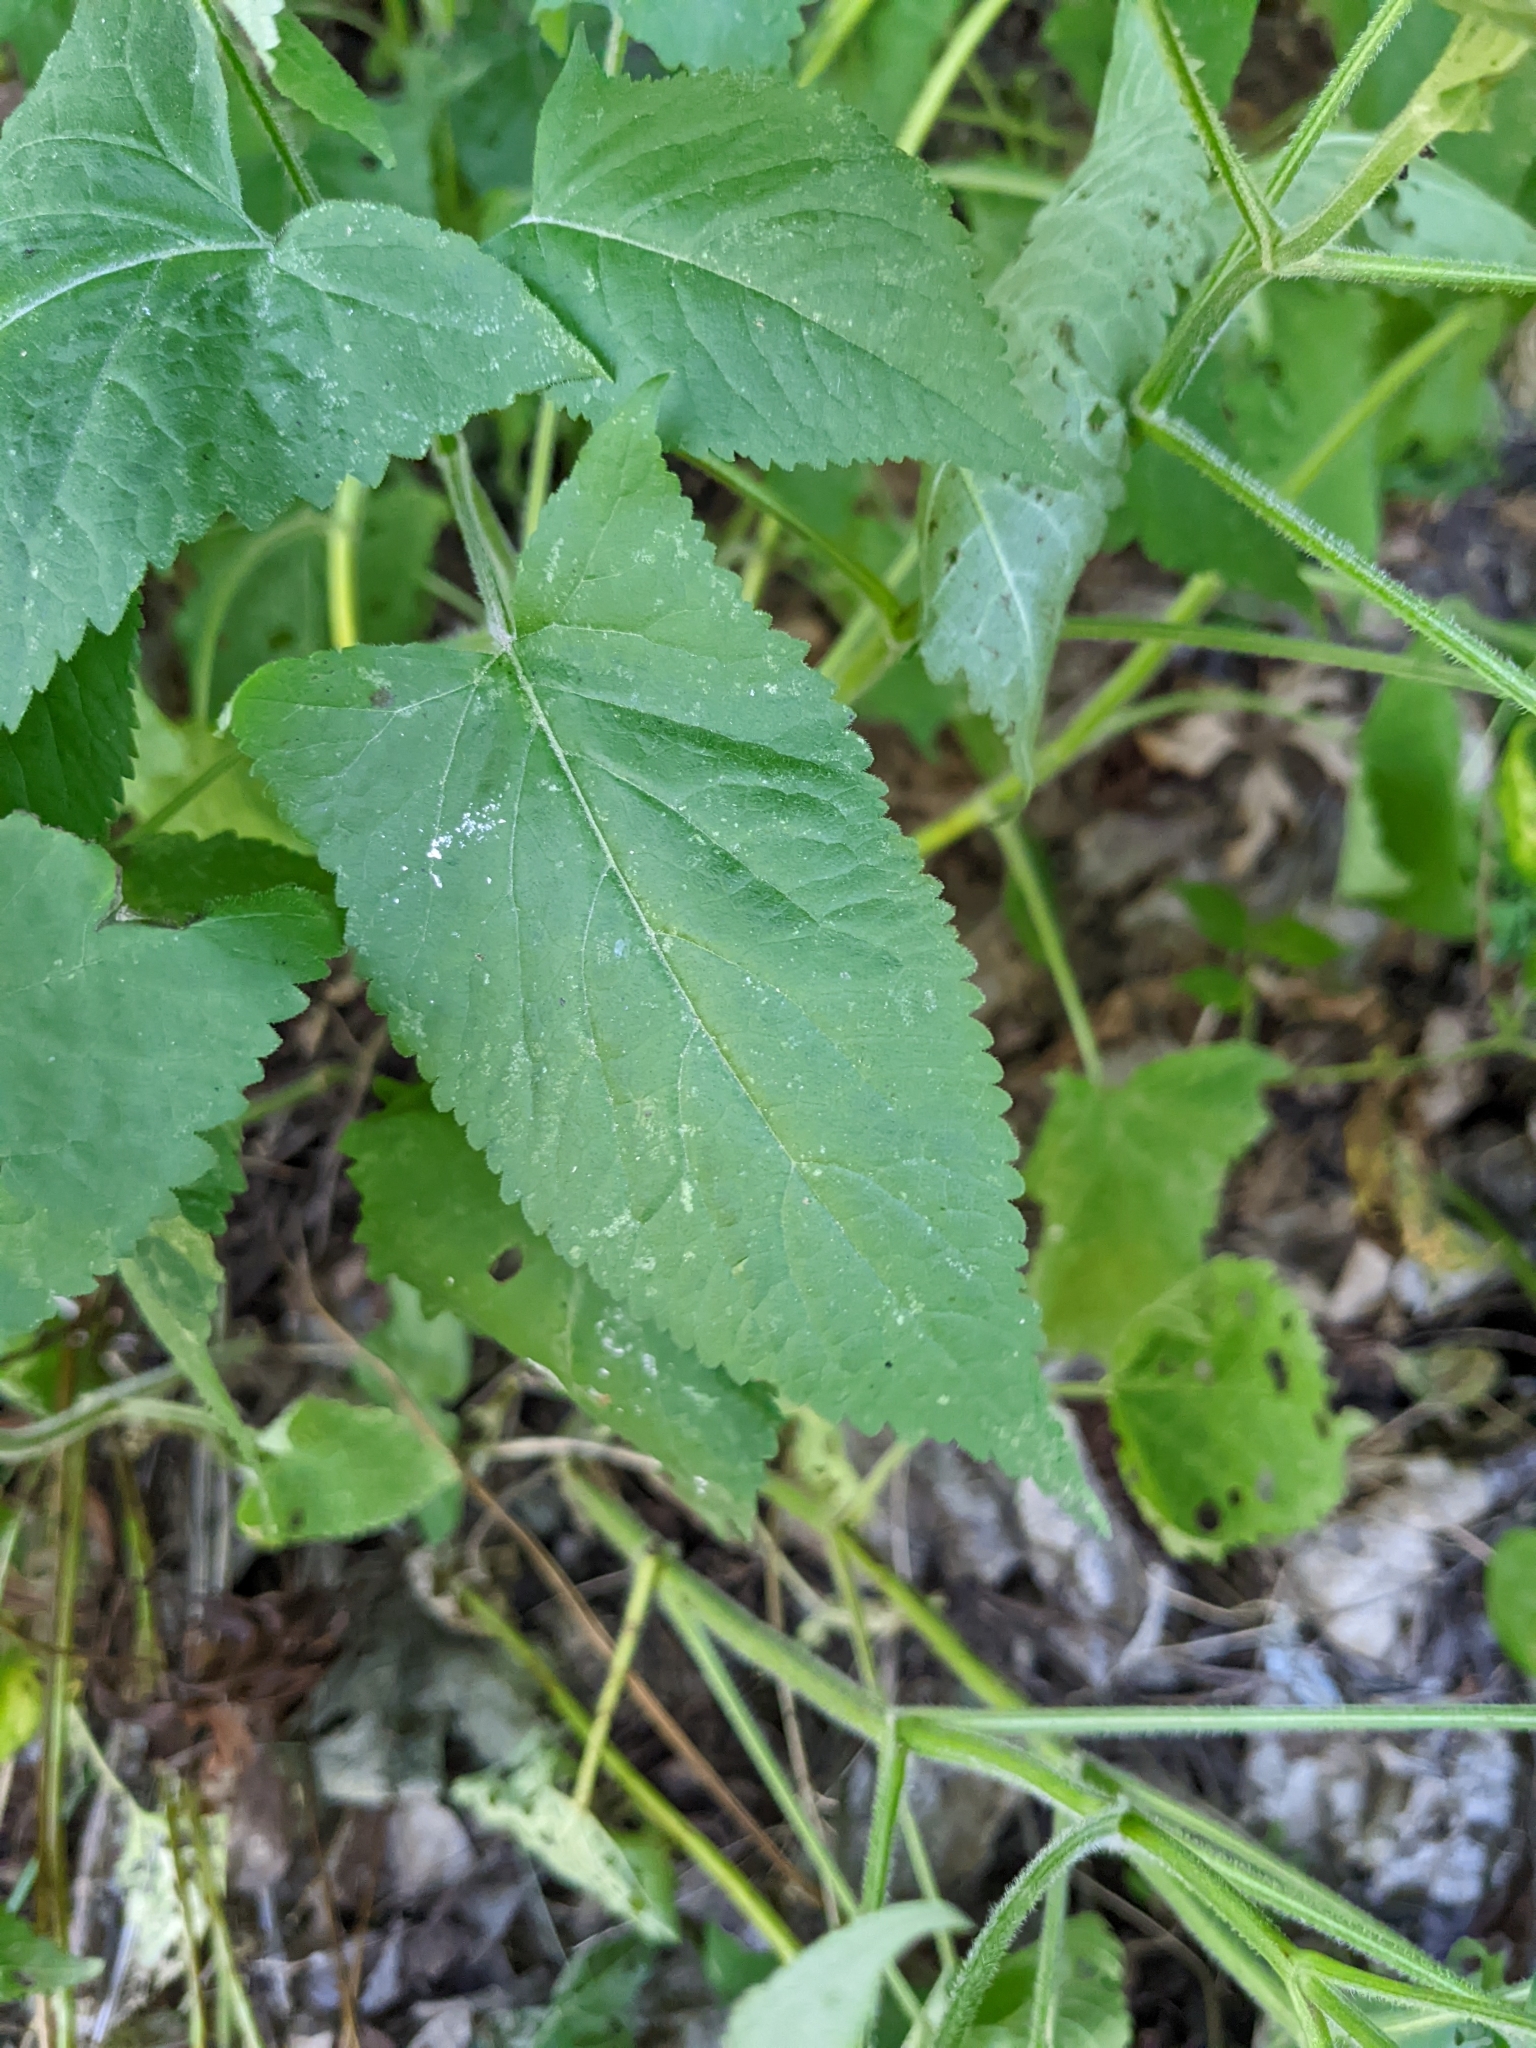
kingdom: Plantae
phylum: Tracheophyta
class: Magnoliopsida
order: Lamiales
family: Lamiaceae
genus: Salvia
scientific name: Salvia glutinosa
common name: Sticky clary
